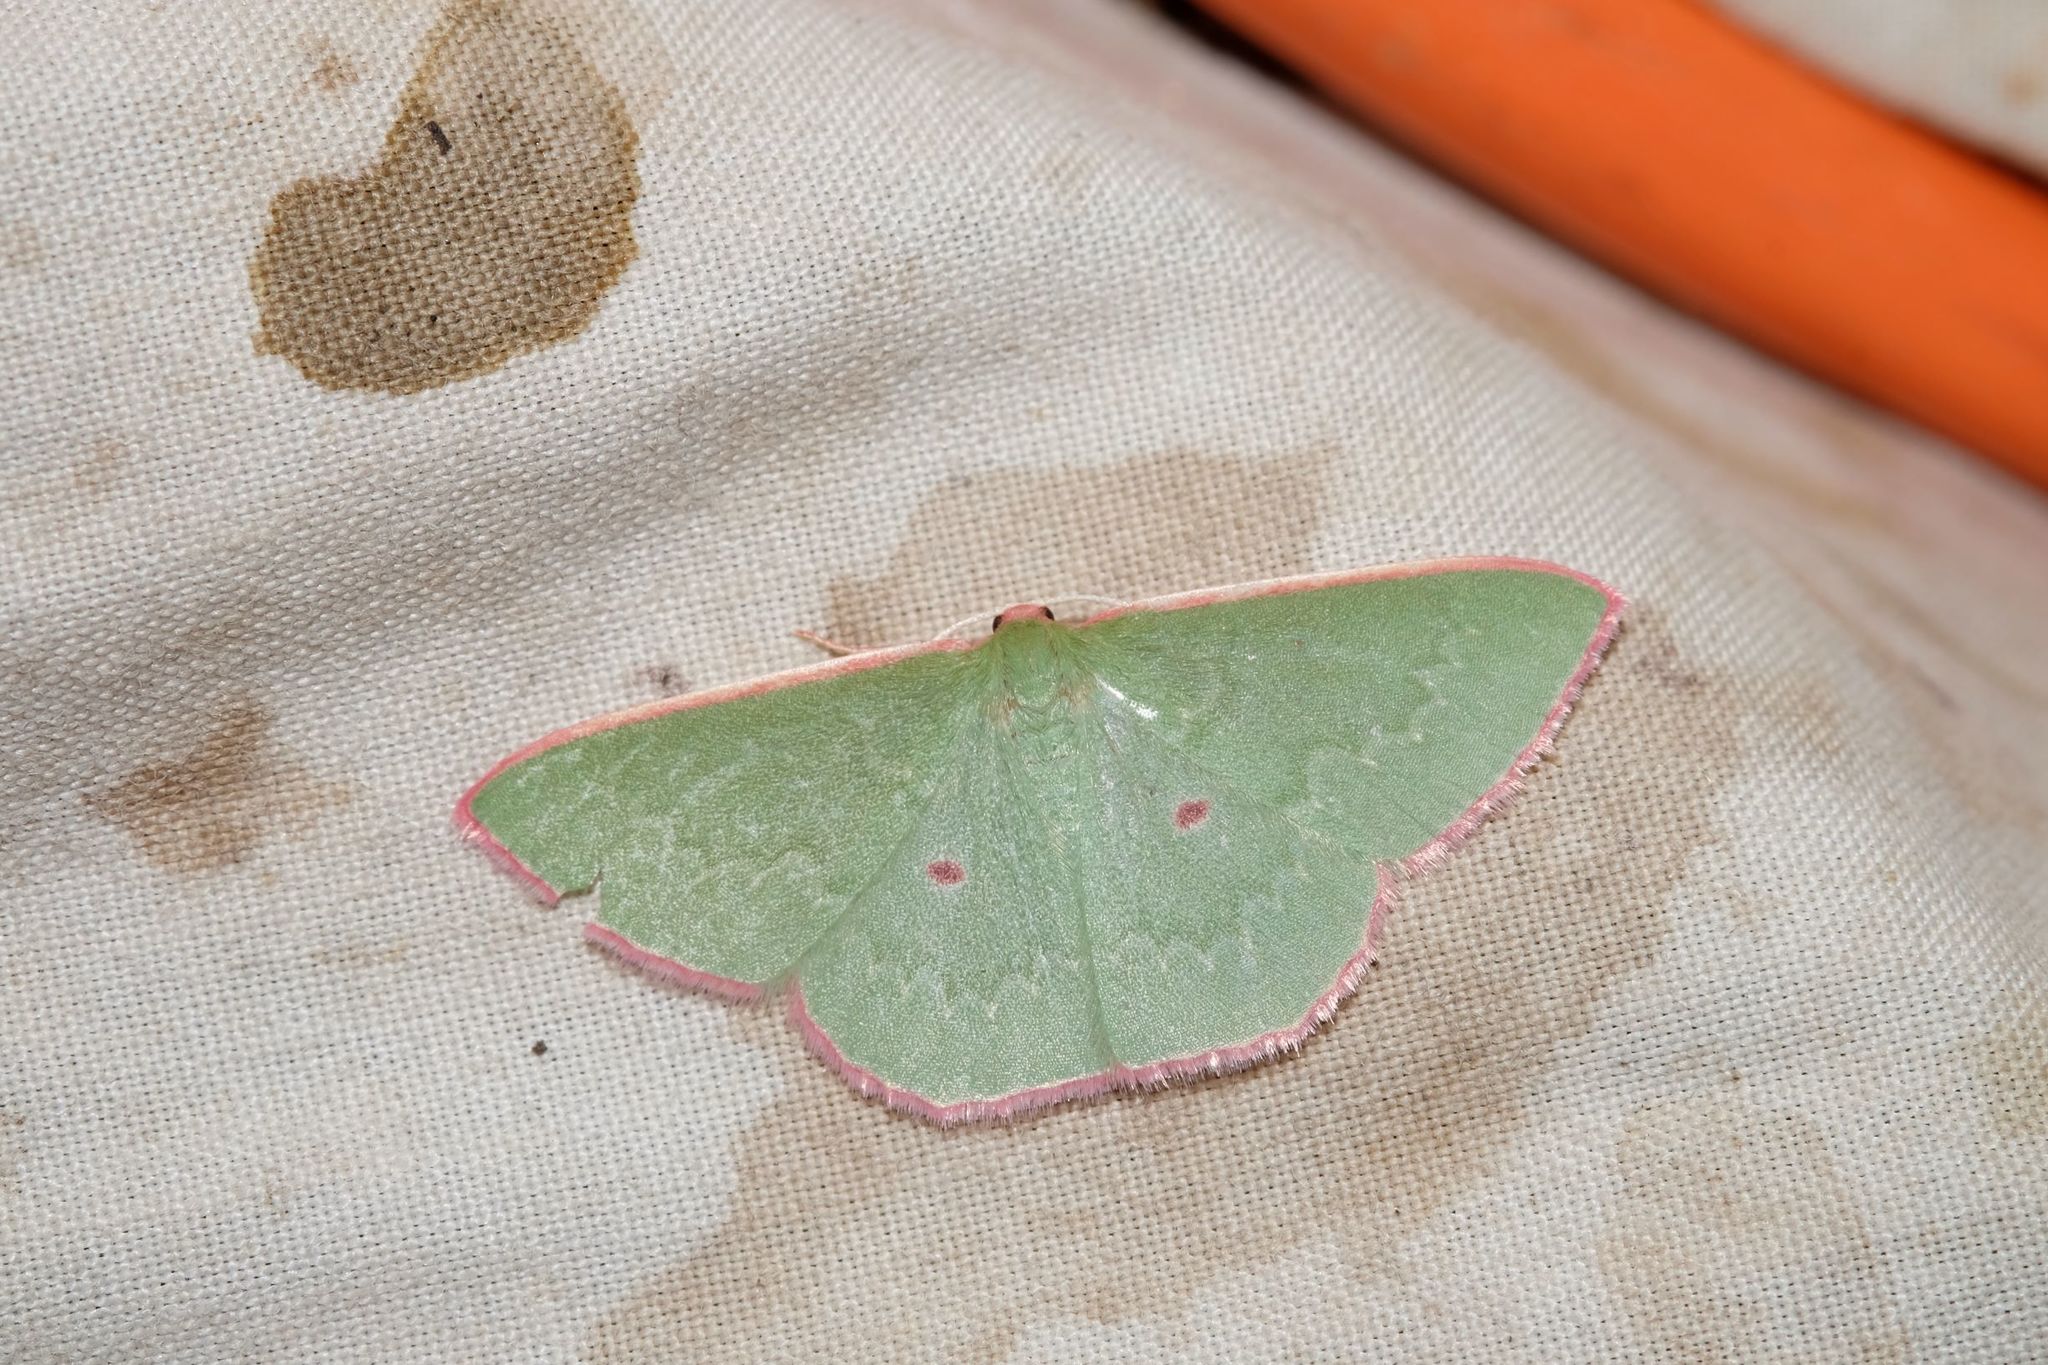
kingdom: Animalia
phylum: Arthropoda
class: Insecta
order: Lepidoptera
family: Geometridae
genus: Chlorocoma
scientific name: Chlorocoma cadmaria
